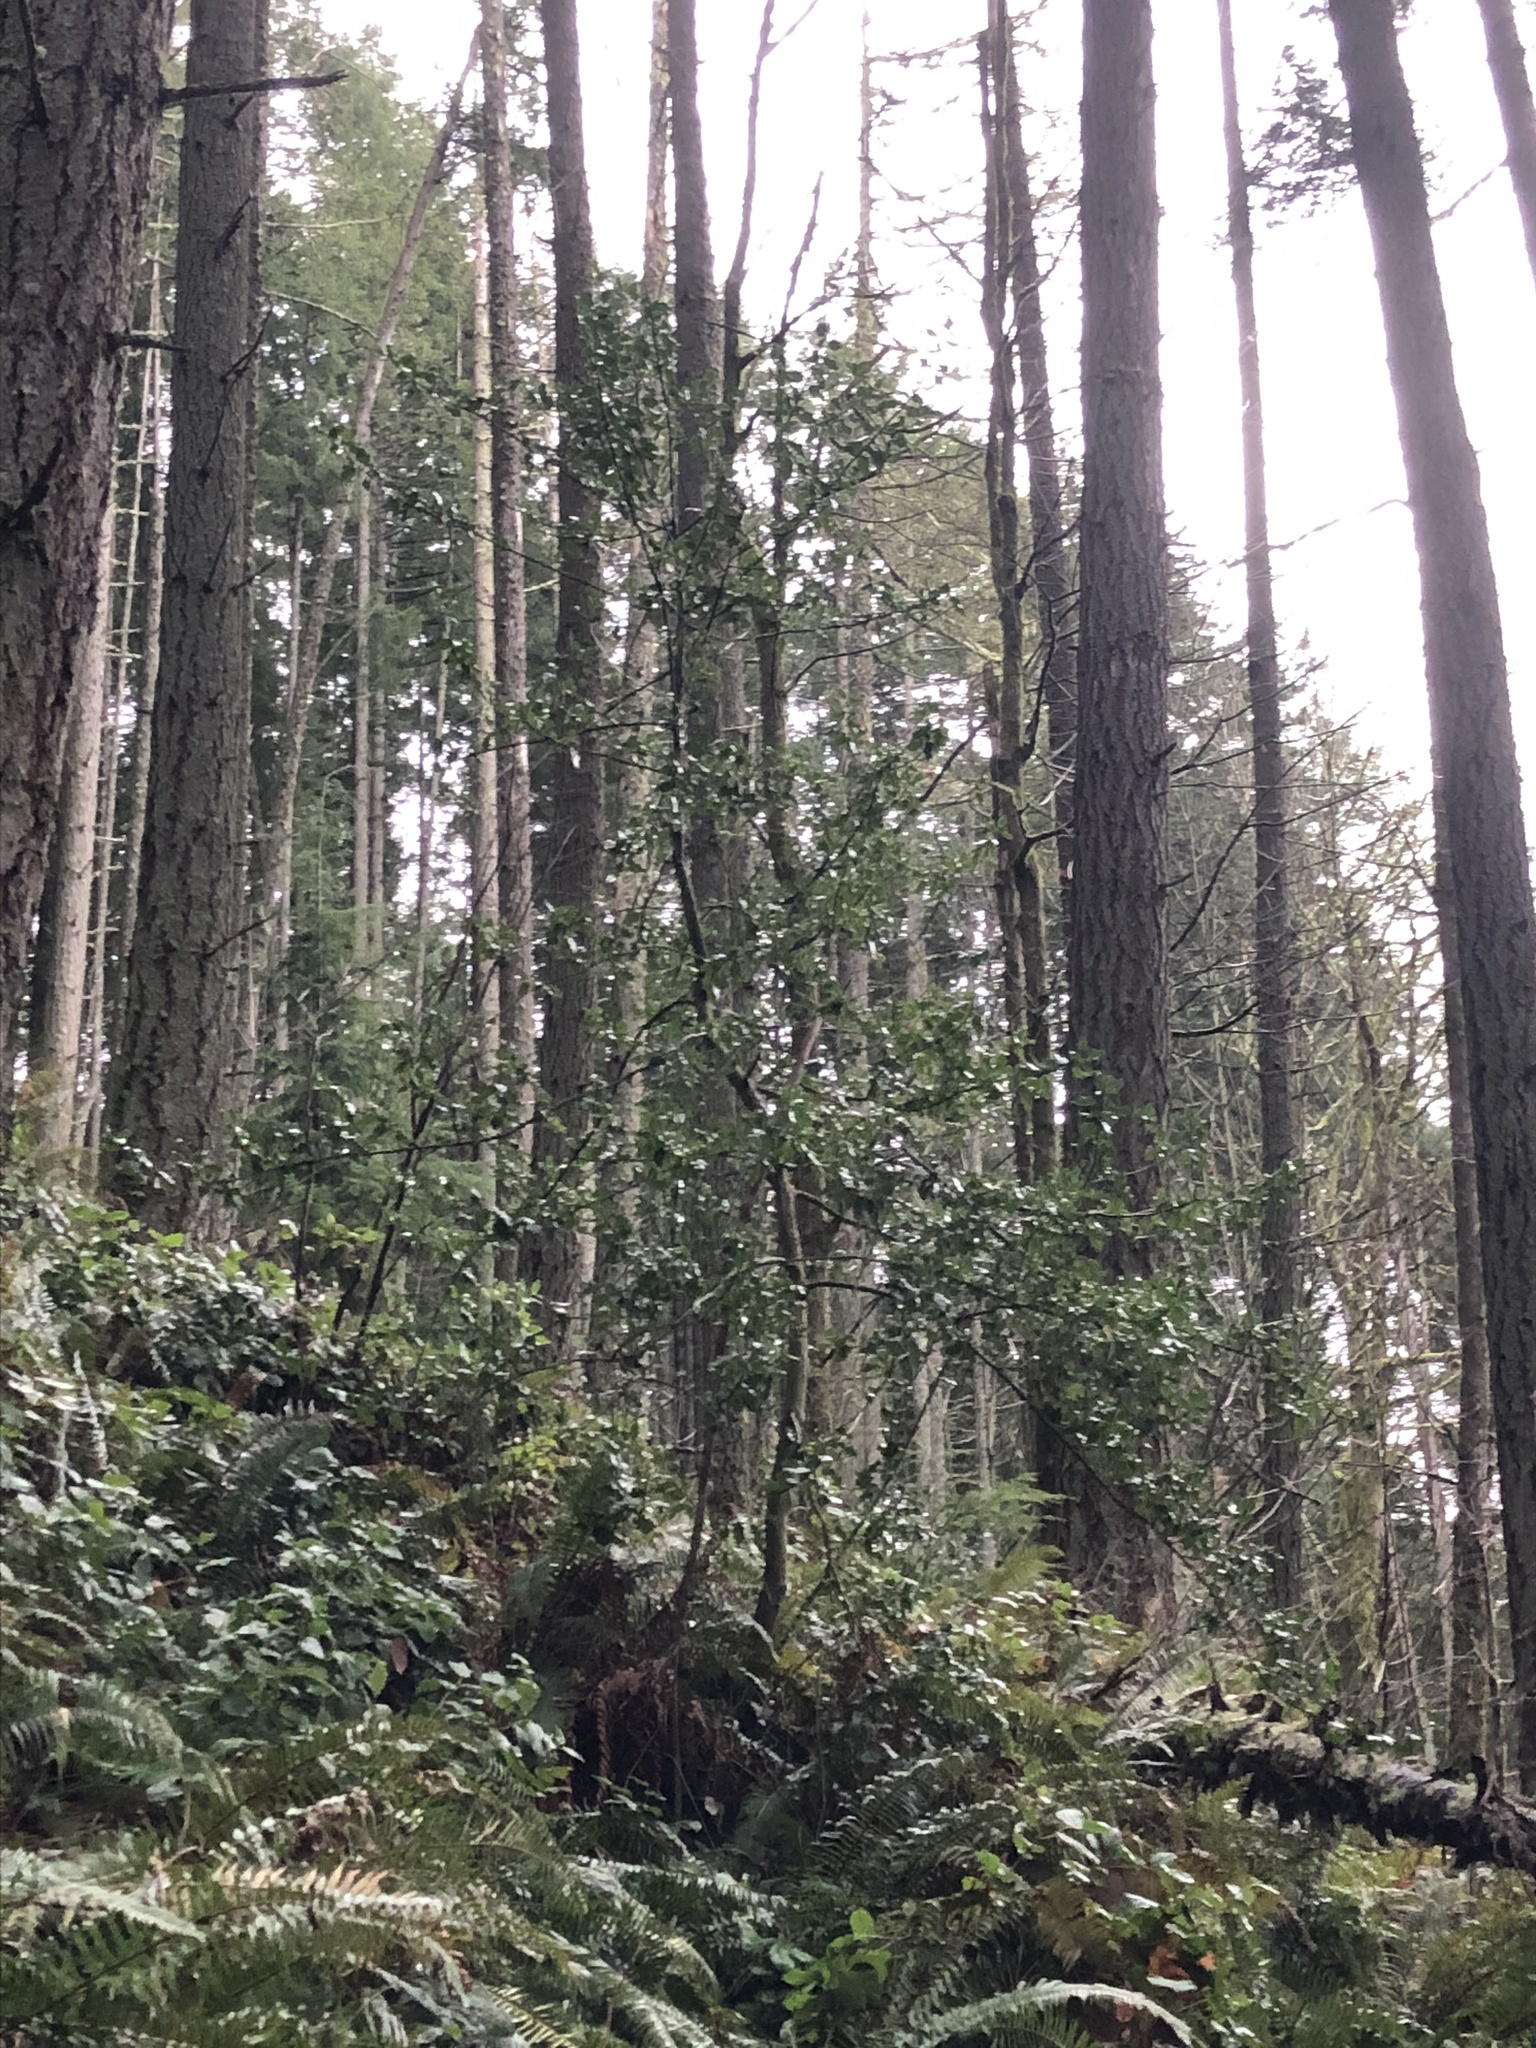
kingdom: Plantae
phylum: Tracheophyta
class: Magnoliopsida
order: Aquifoliales
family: Aquifoliaceae
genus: Ilex
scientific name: Ilex aquifolium
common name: English holly
